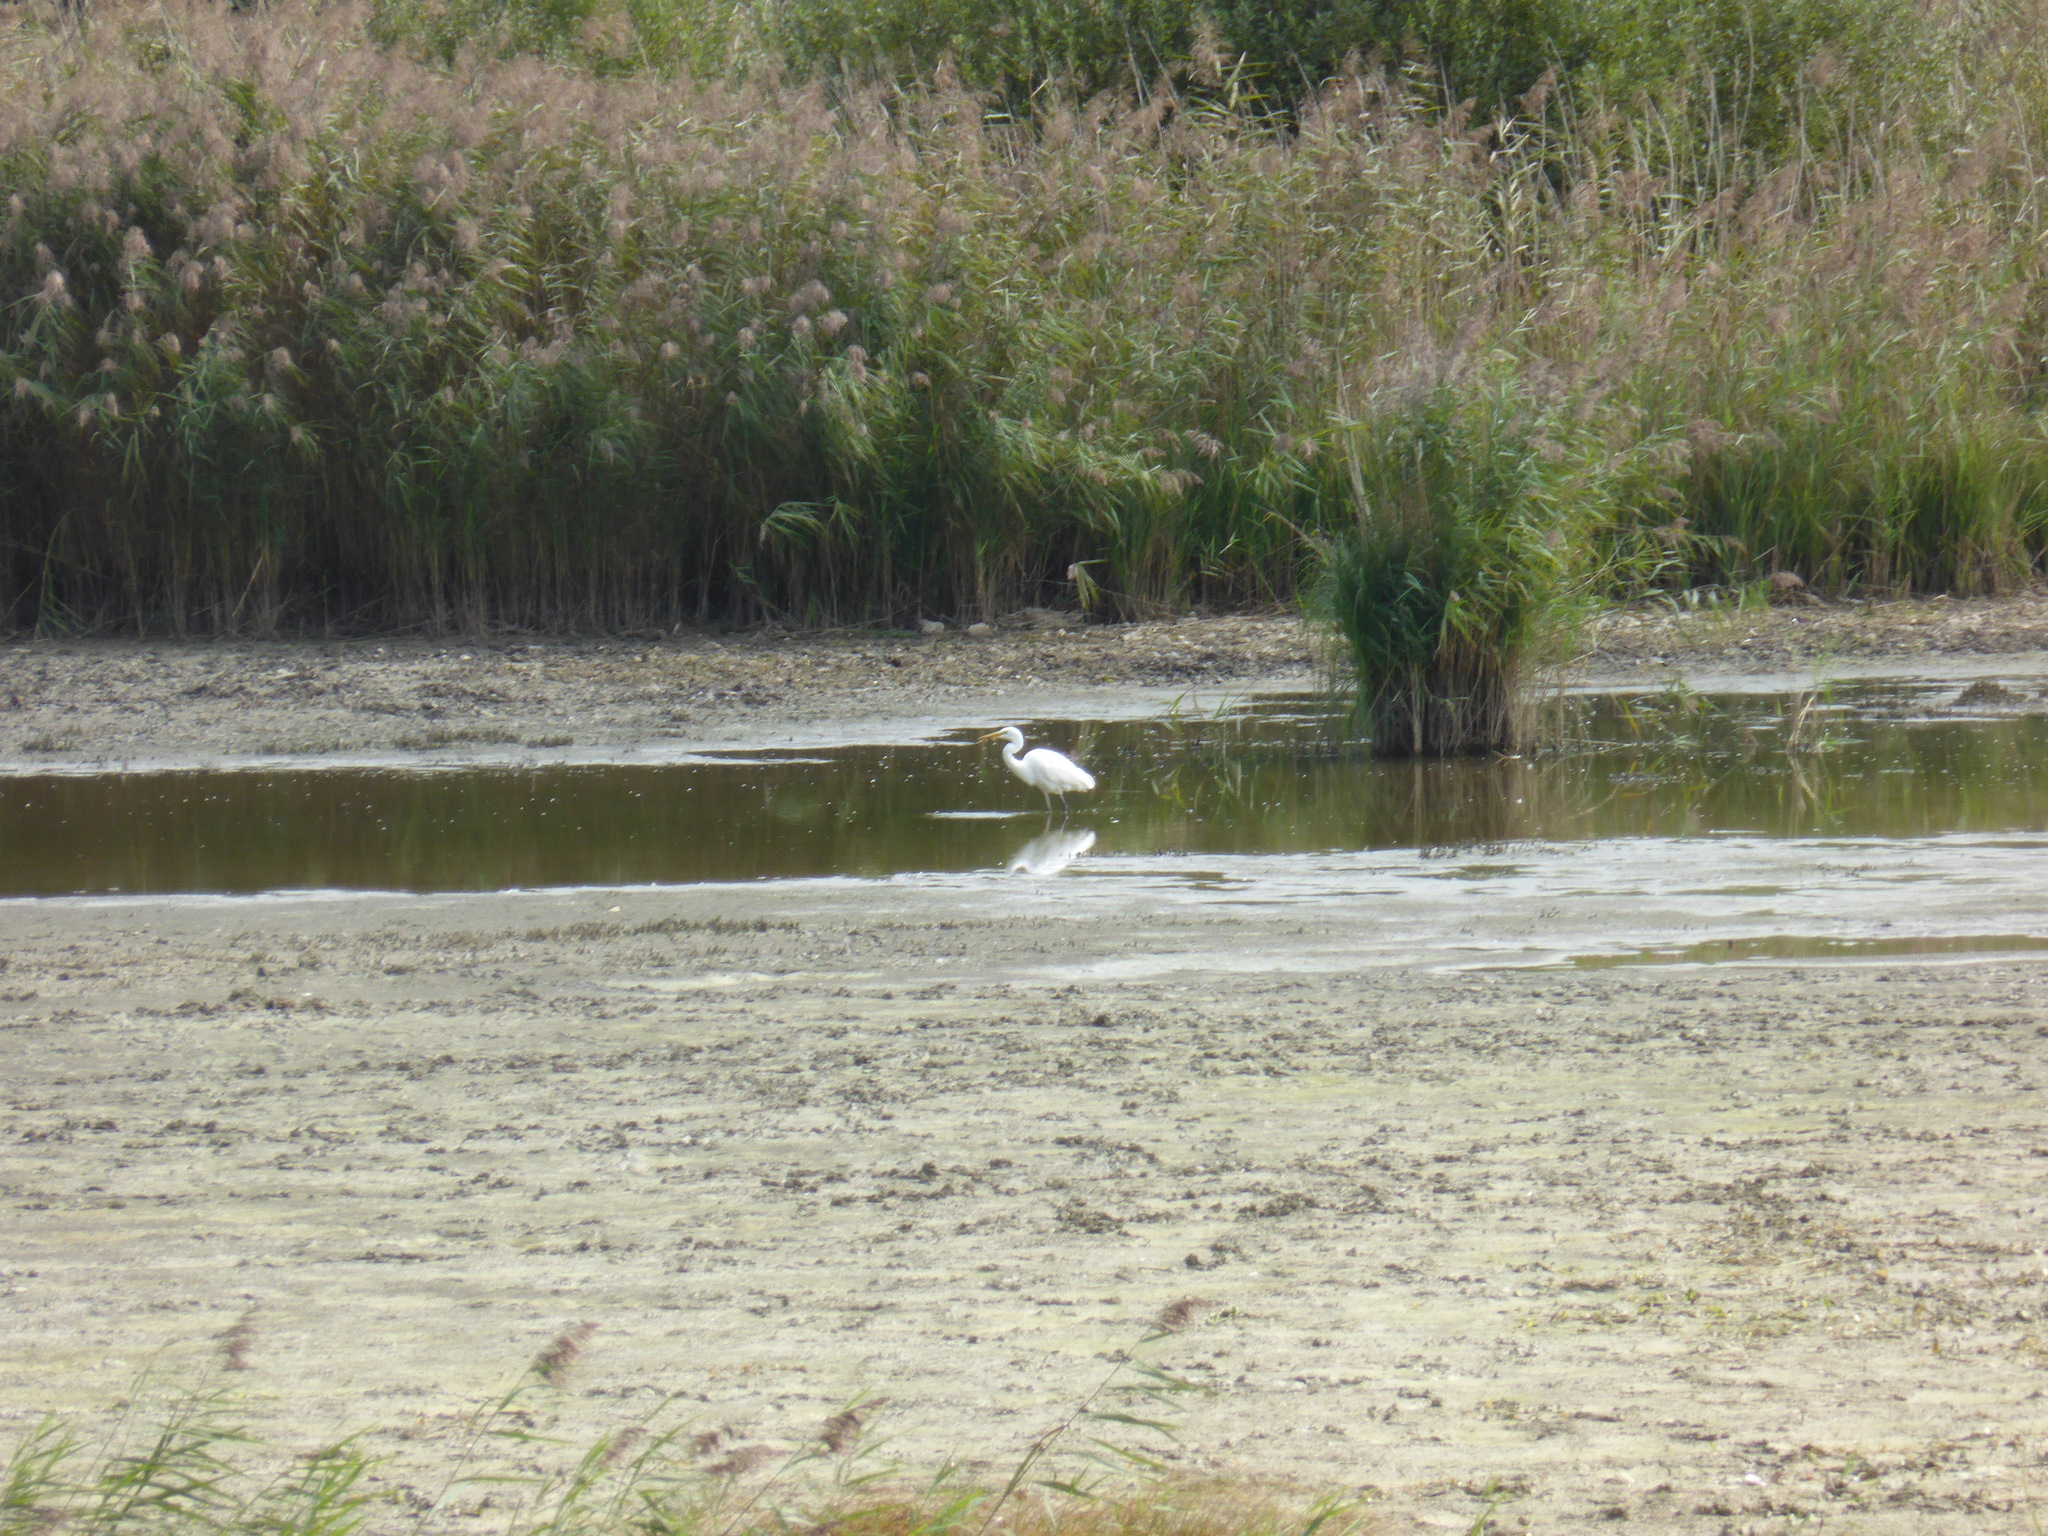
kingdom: Animalia
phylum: Chordata
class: Aves
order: Pelecaniformes
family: Ardeidae
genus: Ardea
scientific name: Ardea alba
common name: Great egret
